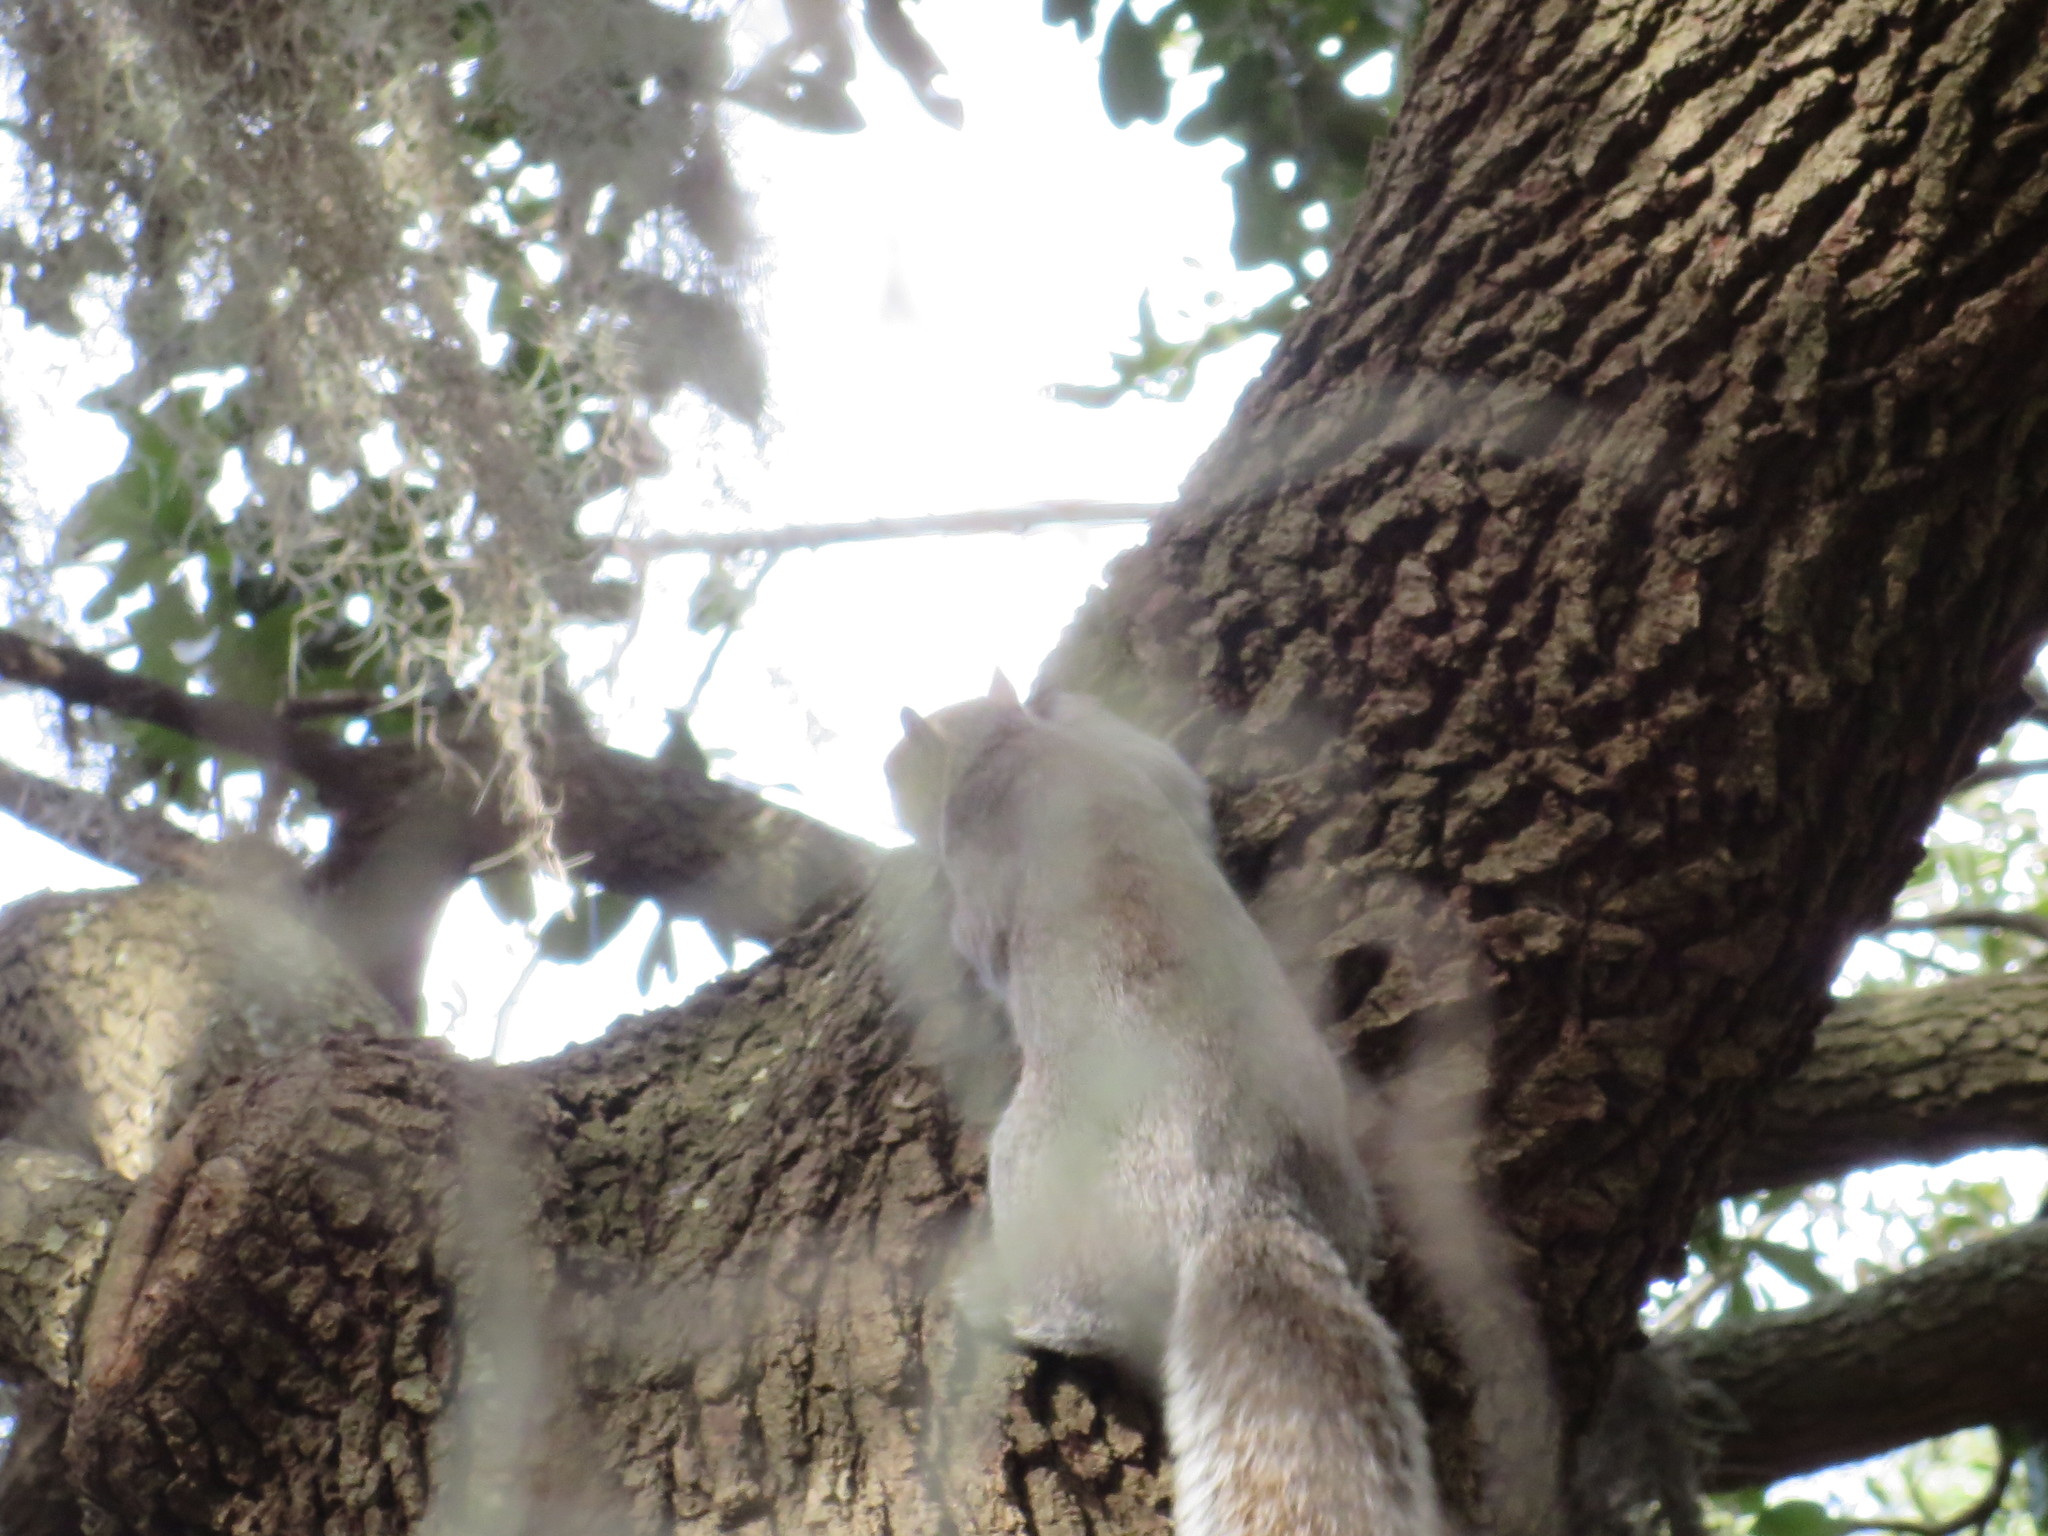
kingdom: Animalia
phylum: Chordata
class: Mammalia
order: Rodentia
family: Sciuridae
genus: Sciurus
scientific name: Sciurus carolinensis
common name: Eastern gray squirrel
